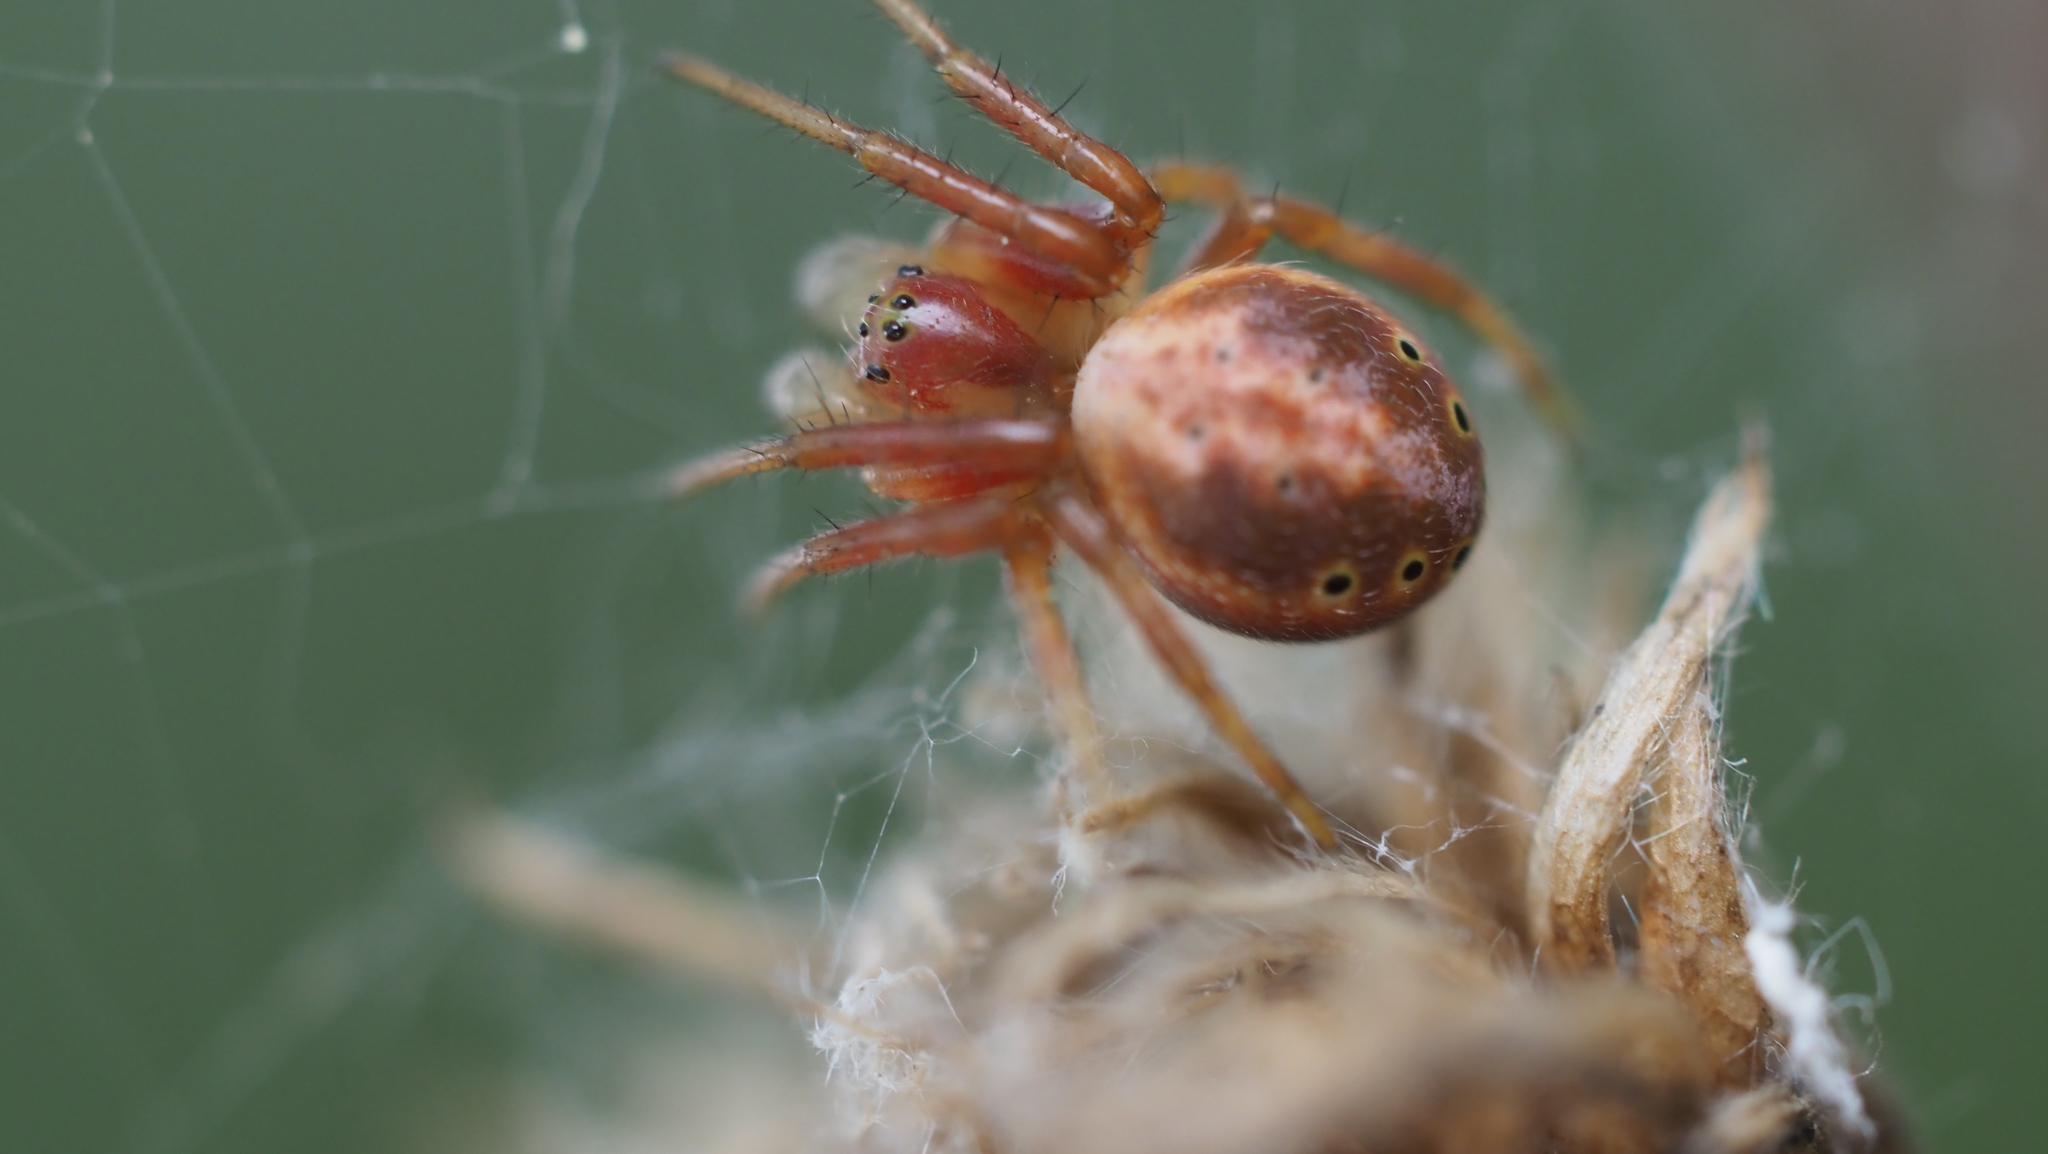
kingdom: Animalia
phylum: Arthropoda
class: Arachnida
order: Araneae
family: Araneidae
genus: Araniella
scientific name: Araniella displicata
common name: Sixspotted orb weaver
